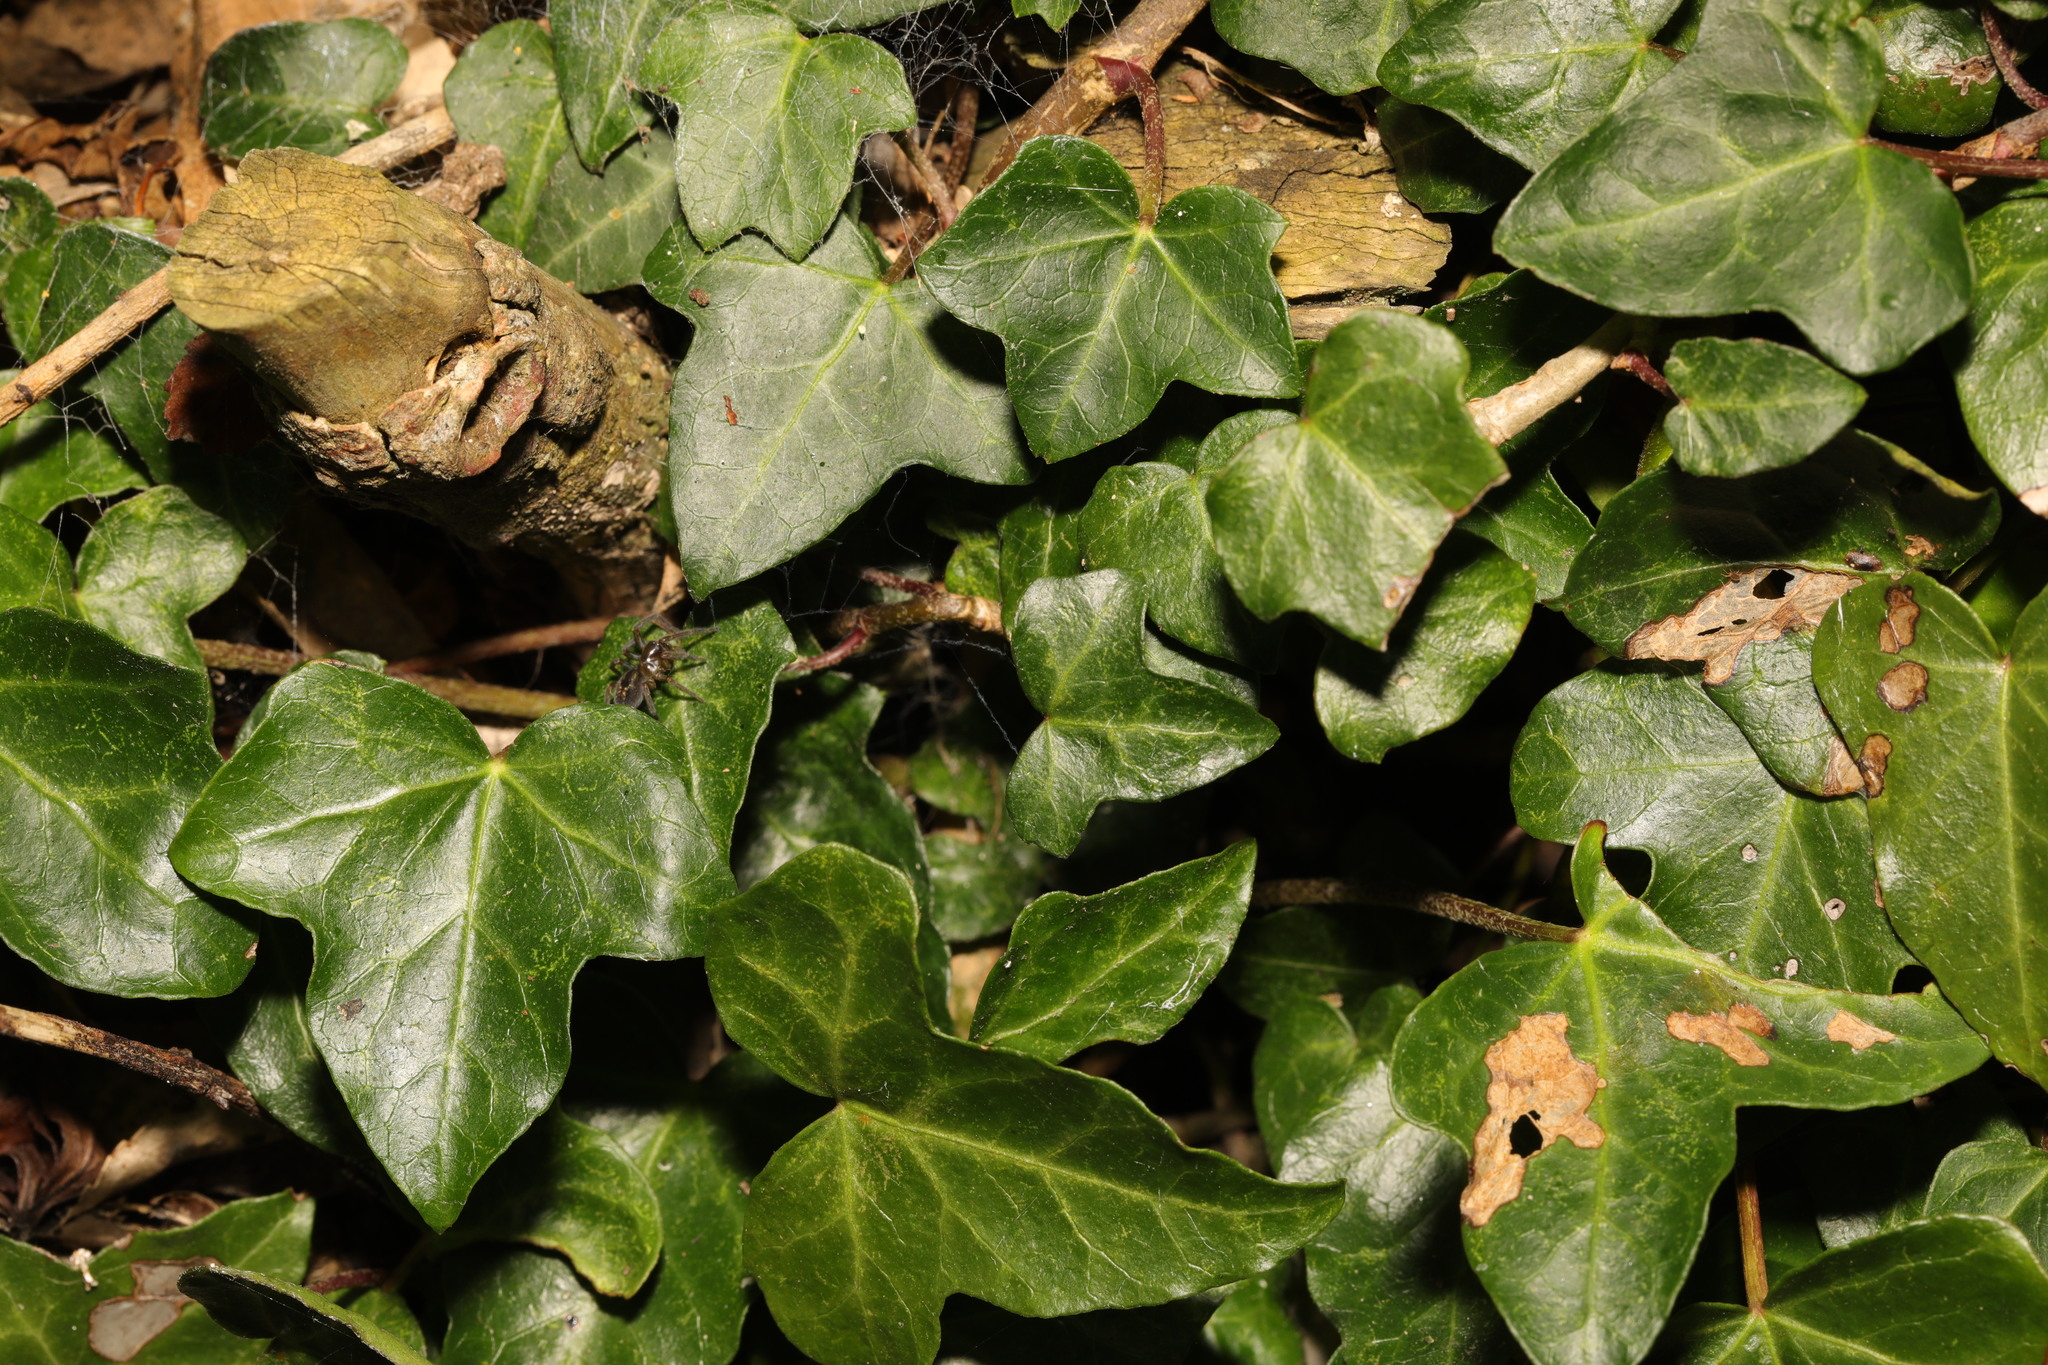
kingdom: Plantae
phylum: Tracheophyta
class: Magnoliopsida
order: Apiales
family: Araliaceae
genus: Hedera
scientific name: Hedera helix
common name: Ivy
